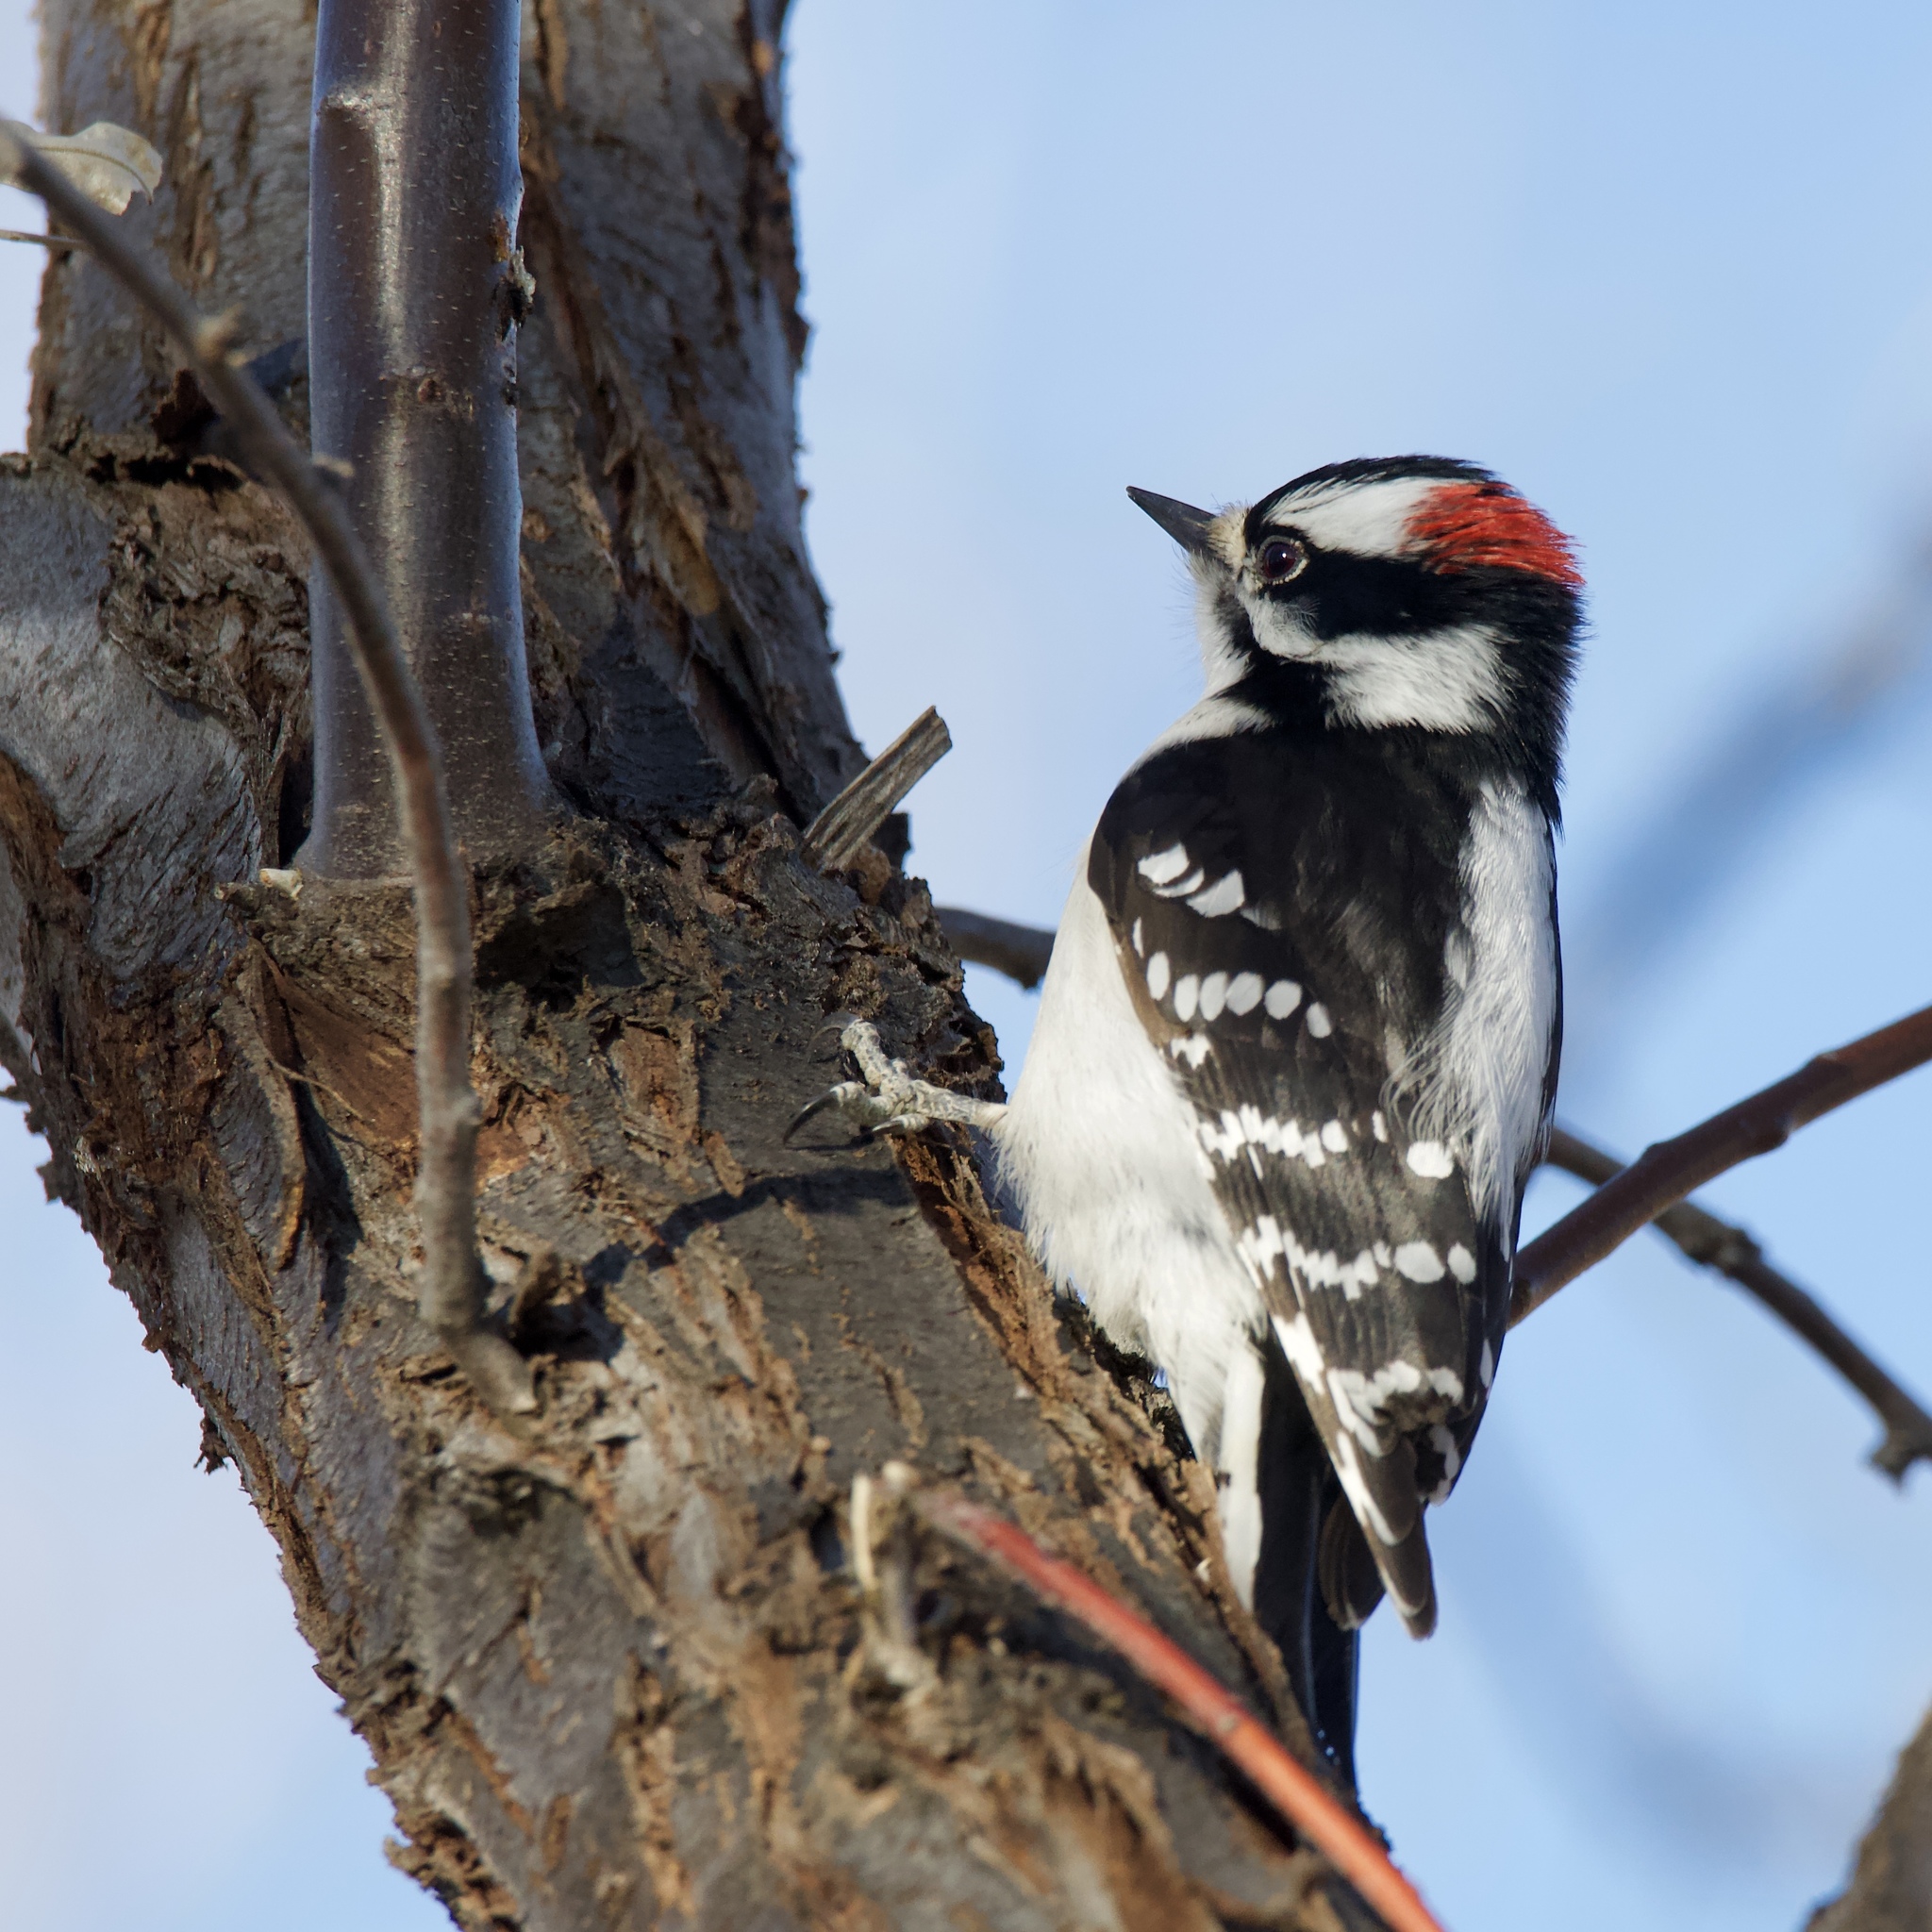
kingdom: Animalia
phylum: Chordata
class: Aves
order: Piciformes
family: Picidae
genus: Dryobates
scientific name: Dryobates pubescens
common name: Downy woodpecker
